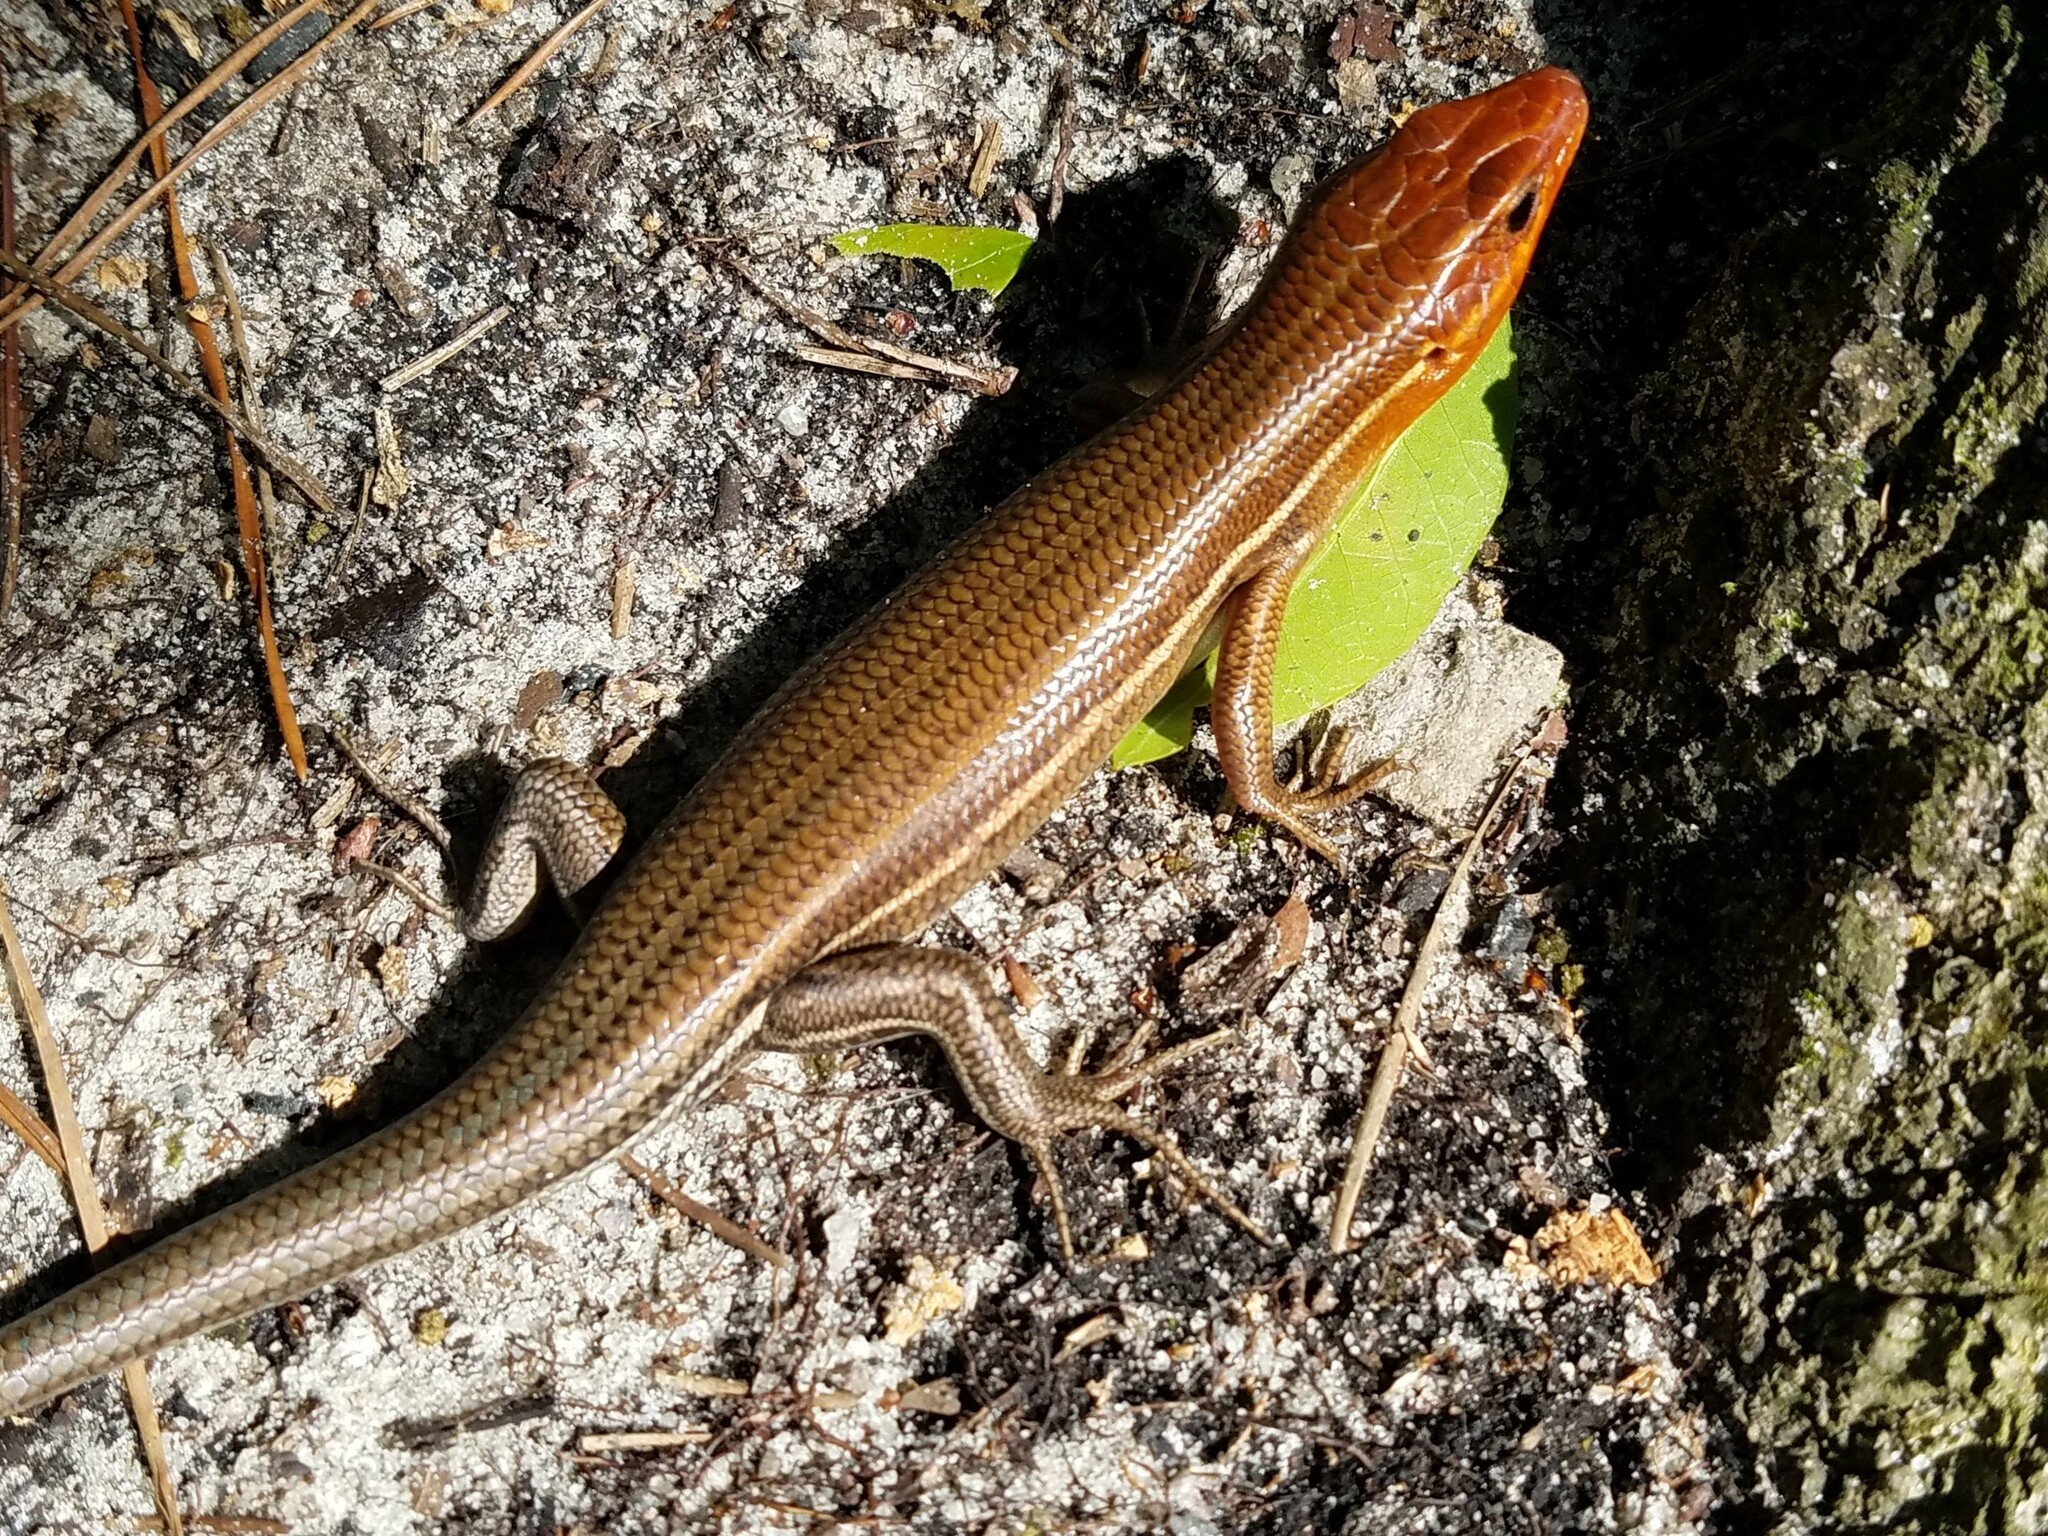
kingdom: Animalia
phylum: Chordata
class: Squamata
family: Scincidae
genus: Plestiodon
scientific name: Plestiodon inexpectatus
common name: Southeastern five-lined skink
